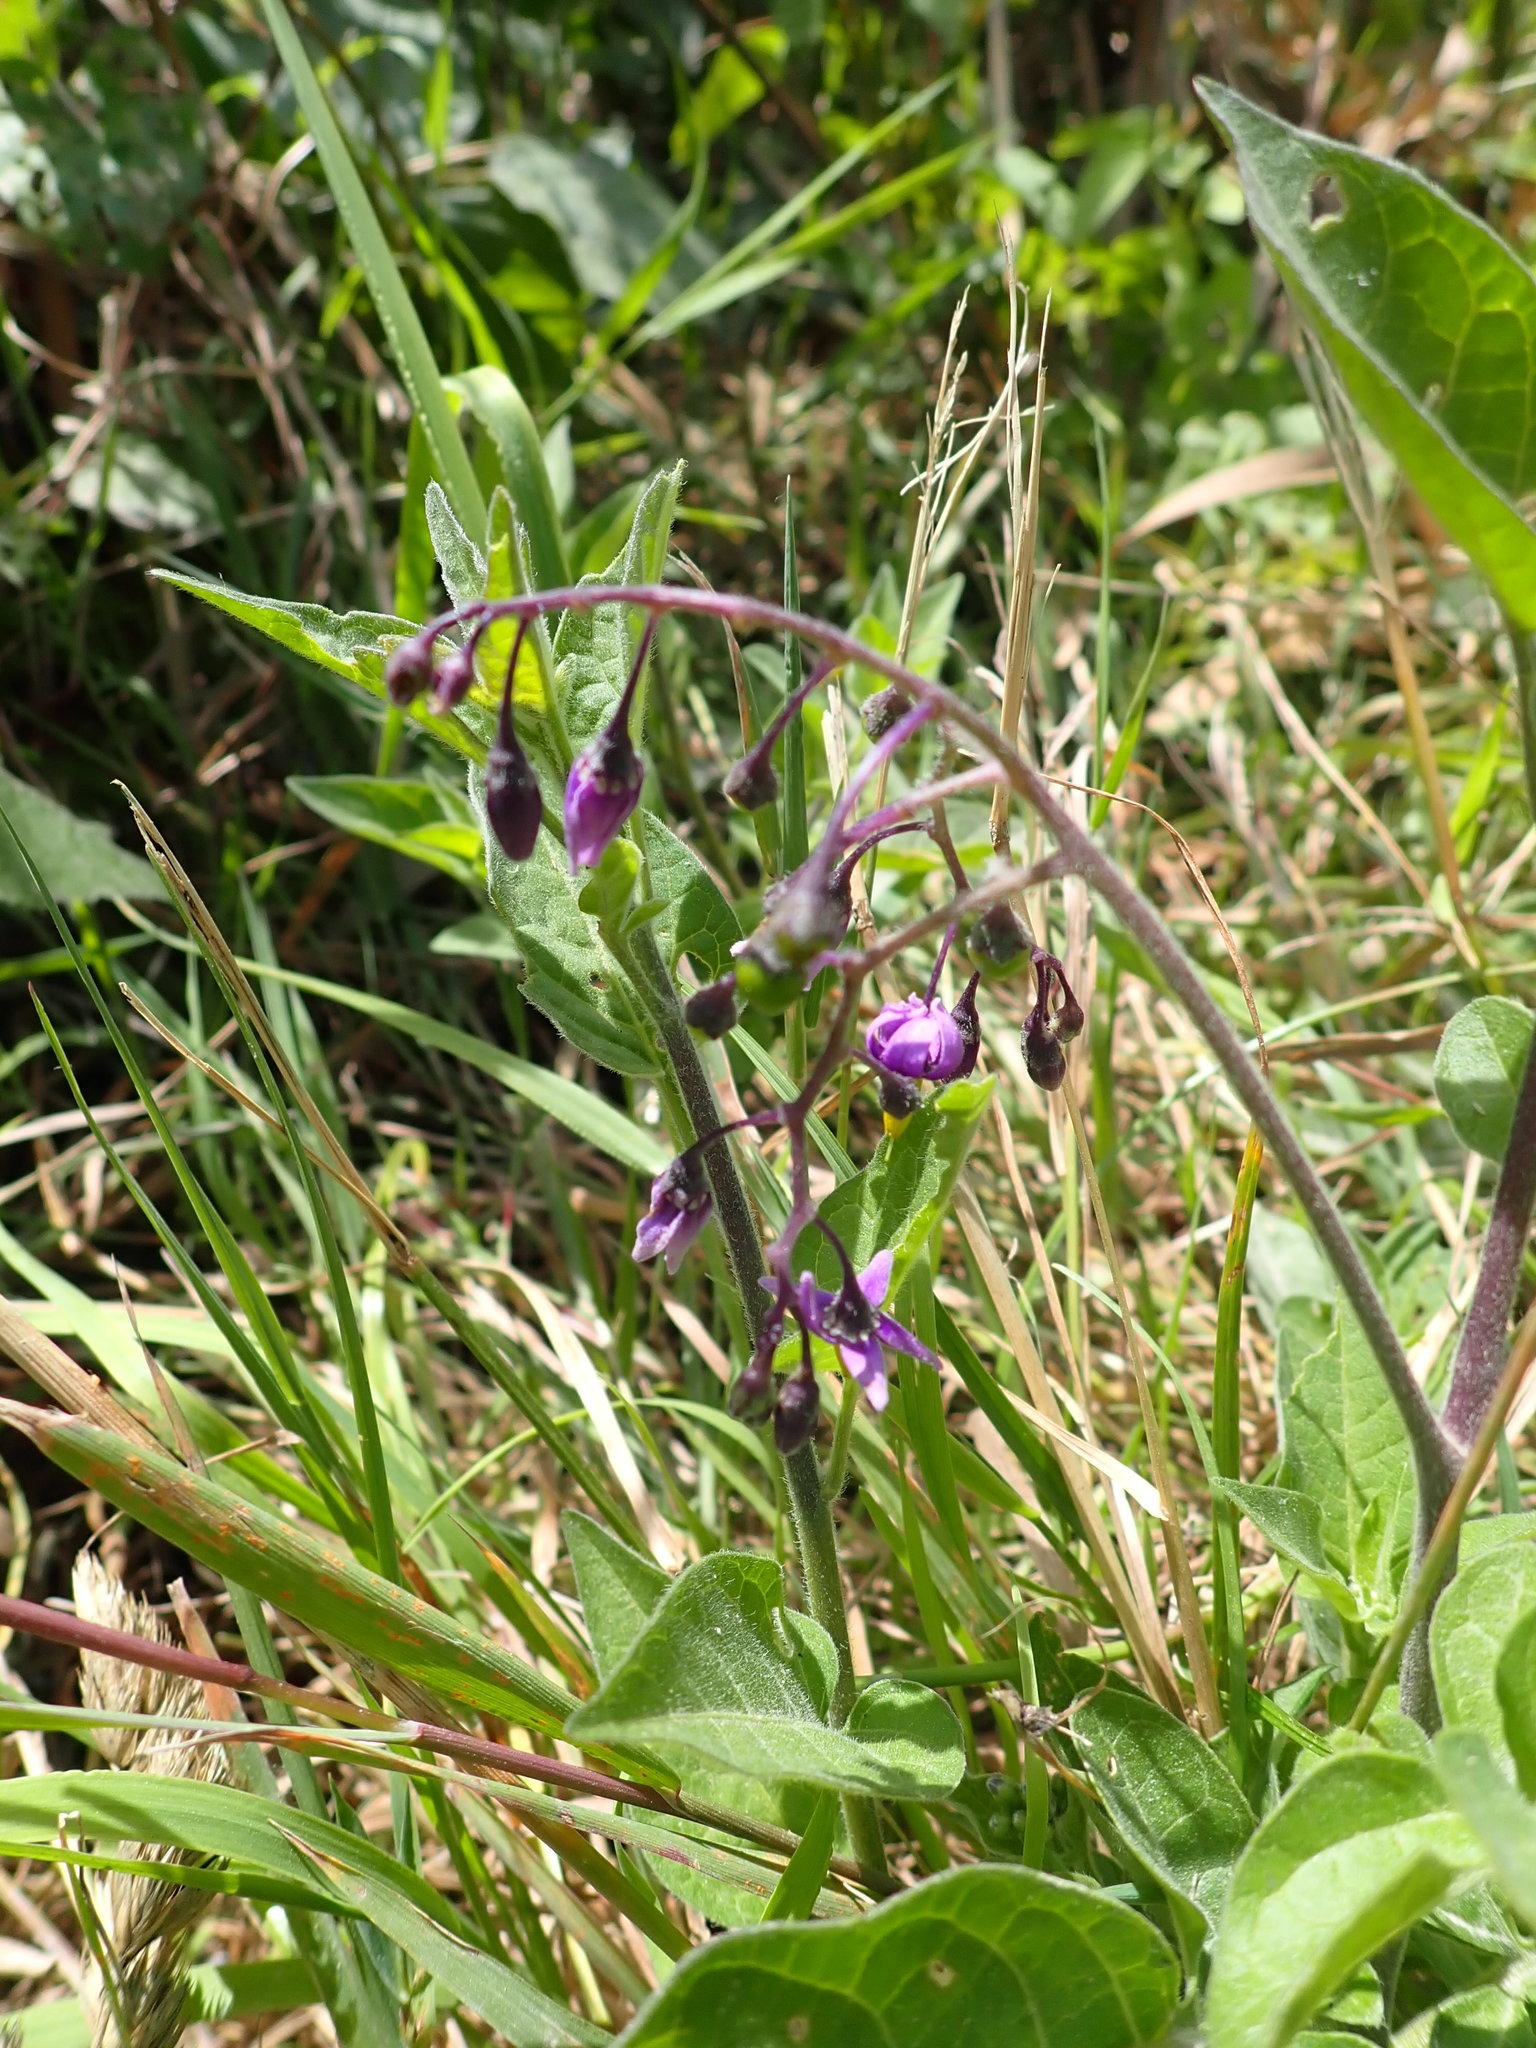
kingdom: Plantae
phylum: Tracheophyta
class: Magnoliopsida
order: Solanales
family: Solanaceae
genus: Solanum
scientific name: Solanum dulcamara
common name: Climbing nightshade
